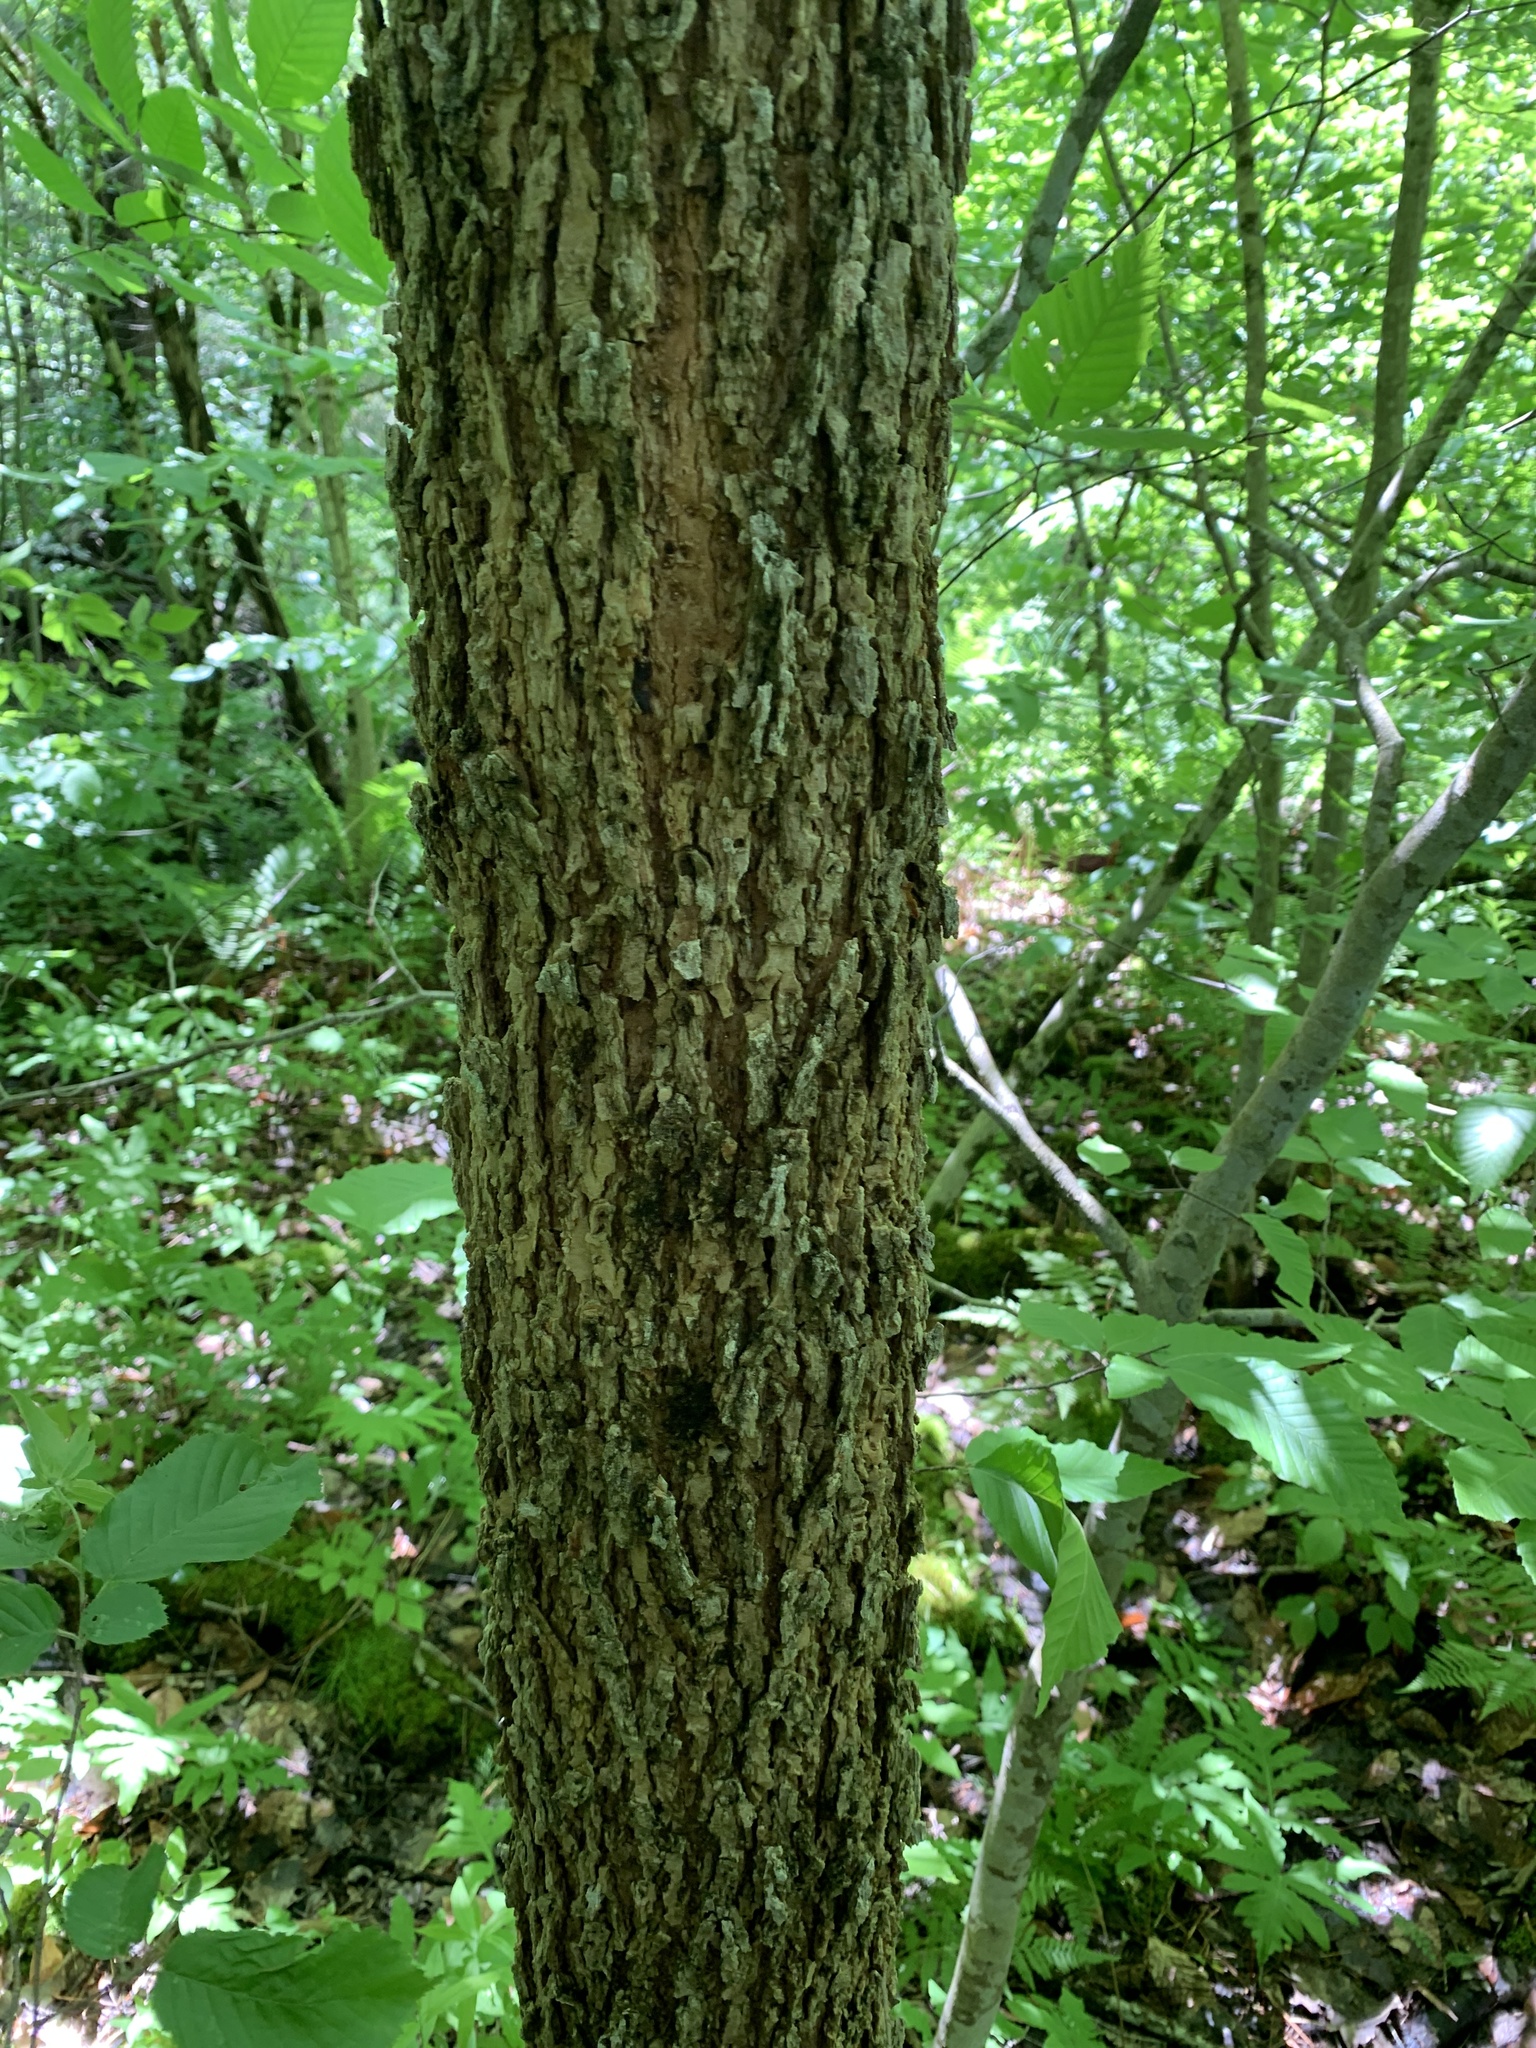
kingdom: Plantae
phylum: Tracheophyta
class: Magnoliopsida
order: Lamiales
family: Oleaceae
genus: Fraxinus
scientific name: Fraxinus nigra
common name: Black ash
